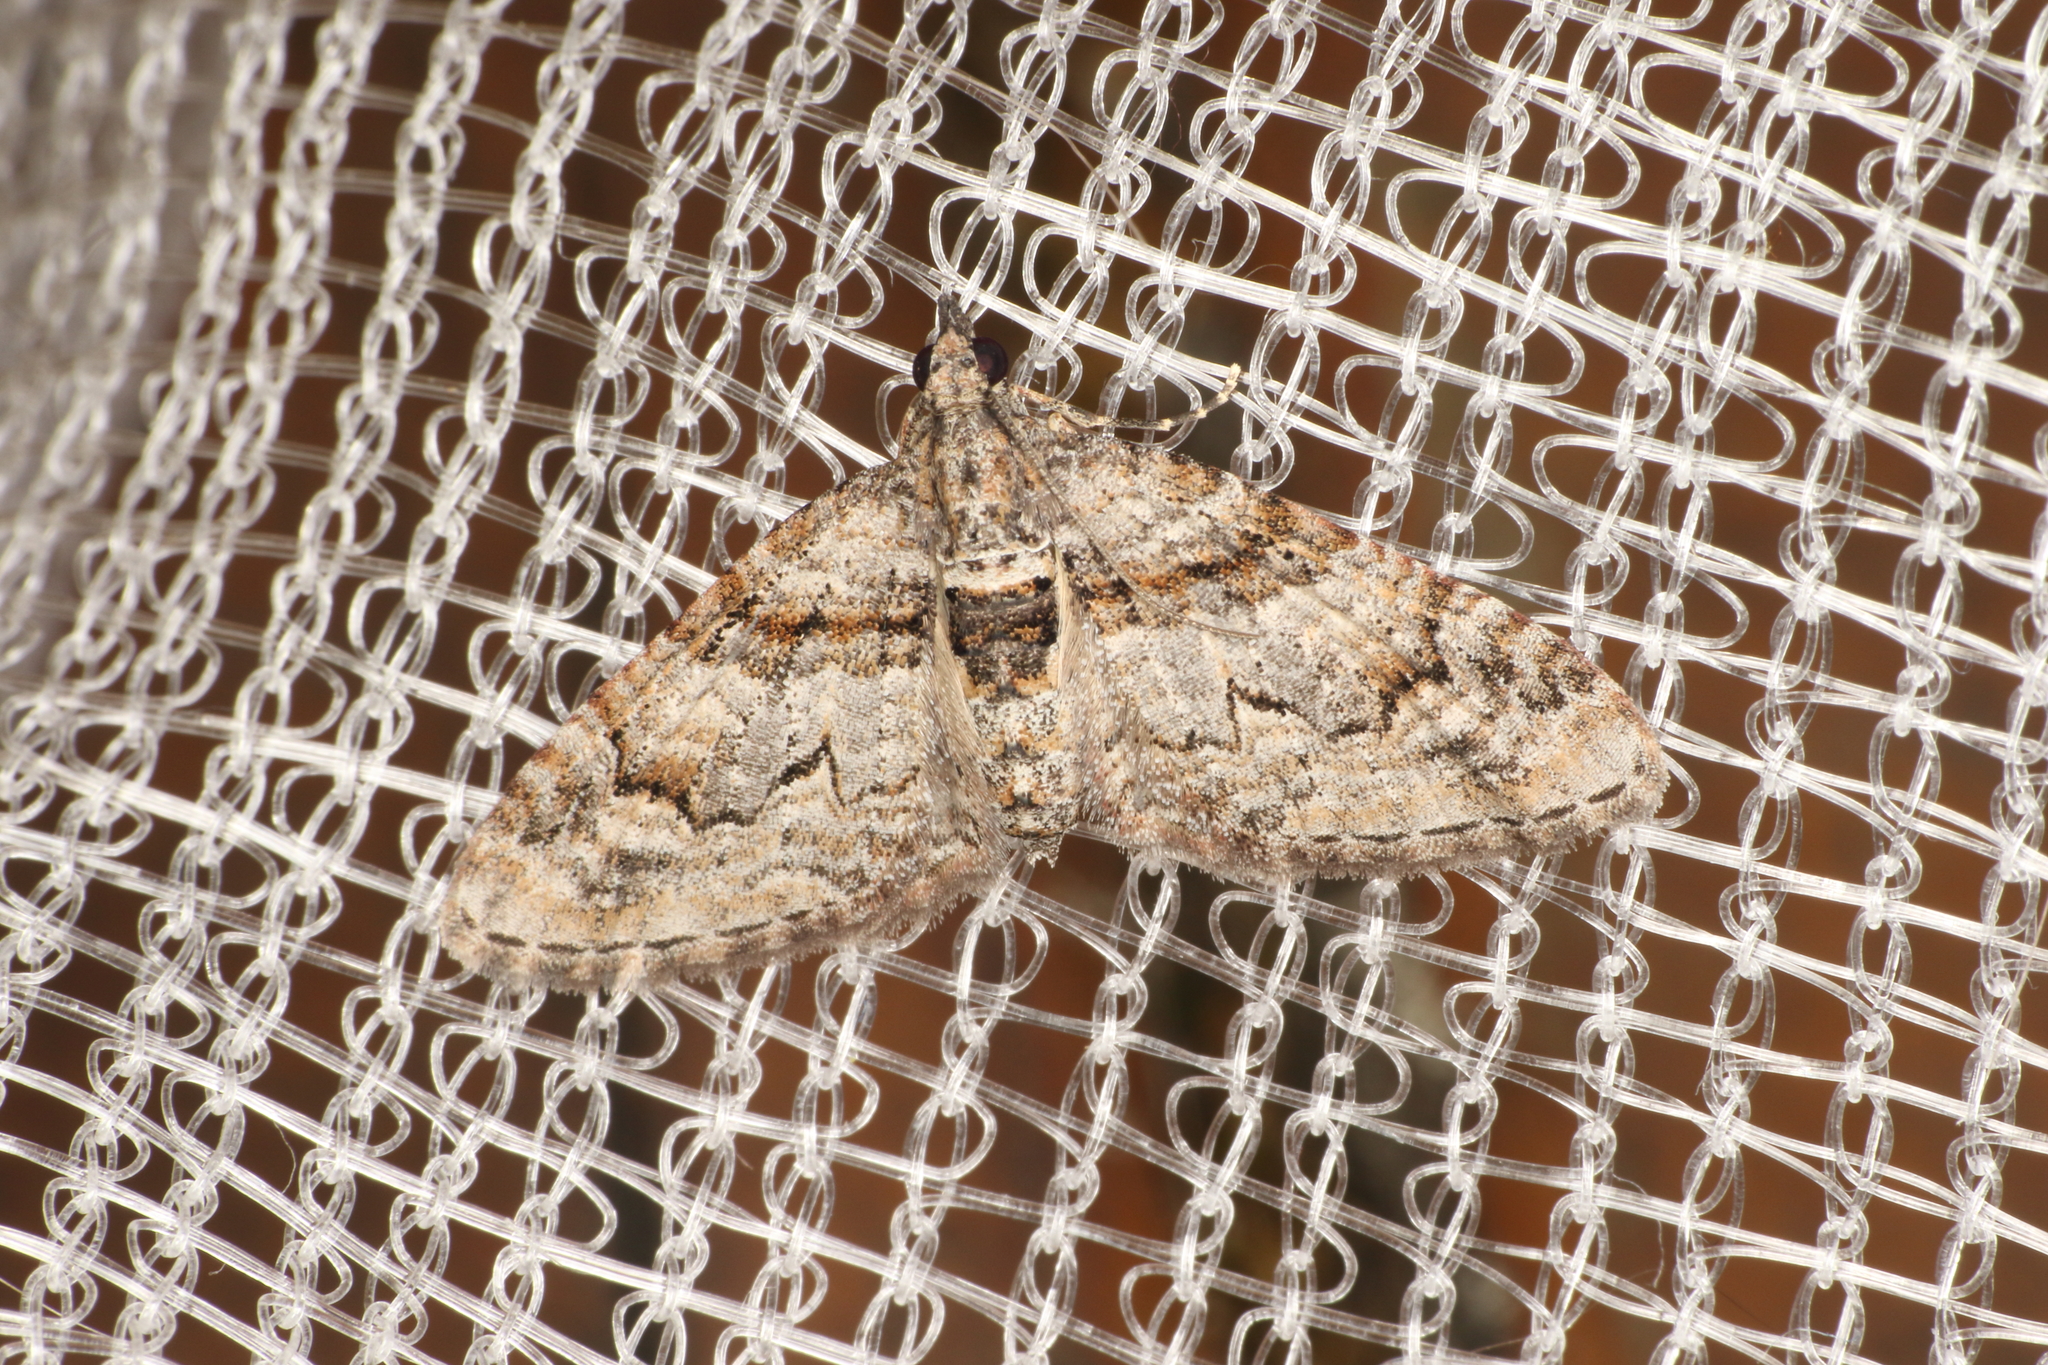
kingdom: Animalia
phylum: Arthropoda
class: Insecta
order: Lepidoptera
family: Geometridae
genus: Phrissogonus
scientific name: Phrissogonus laticostata
